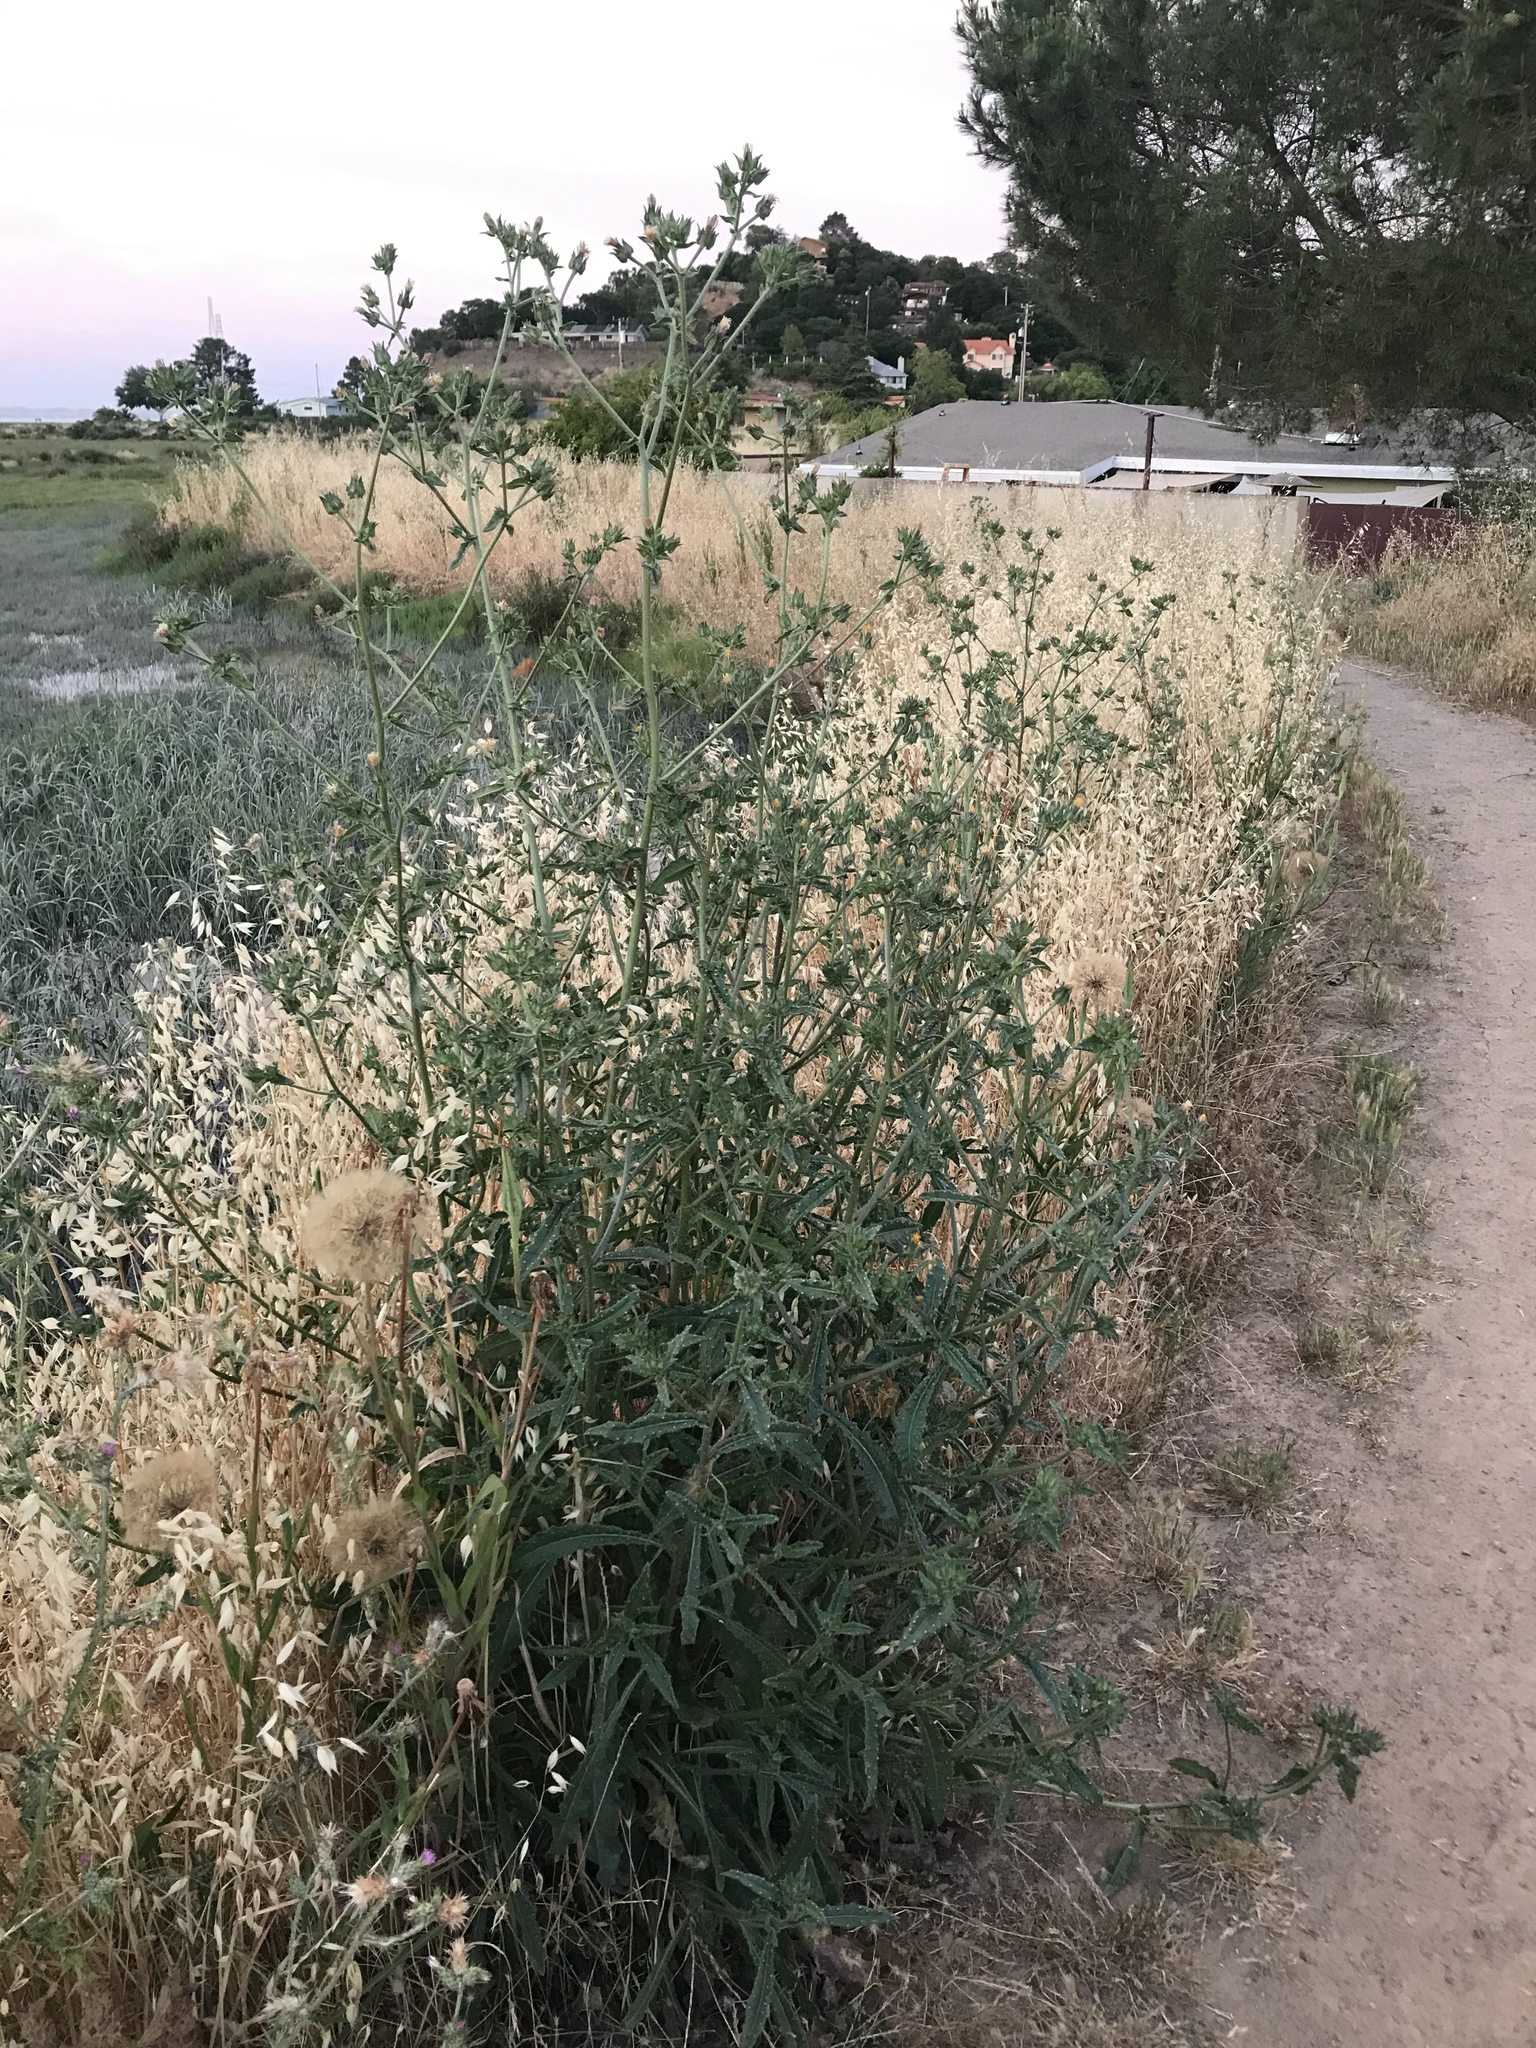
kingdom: Plantae
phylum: Tracheophyta
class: Magnoliopsida
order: Asterales
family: Asteraceae
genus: Helminthotheca
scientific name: Helminthotheca echioides
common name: Ox-tongue
